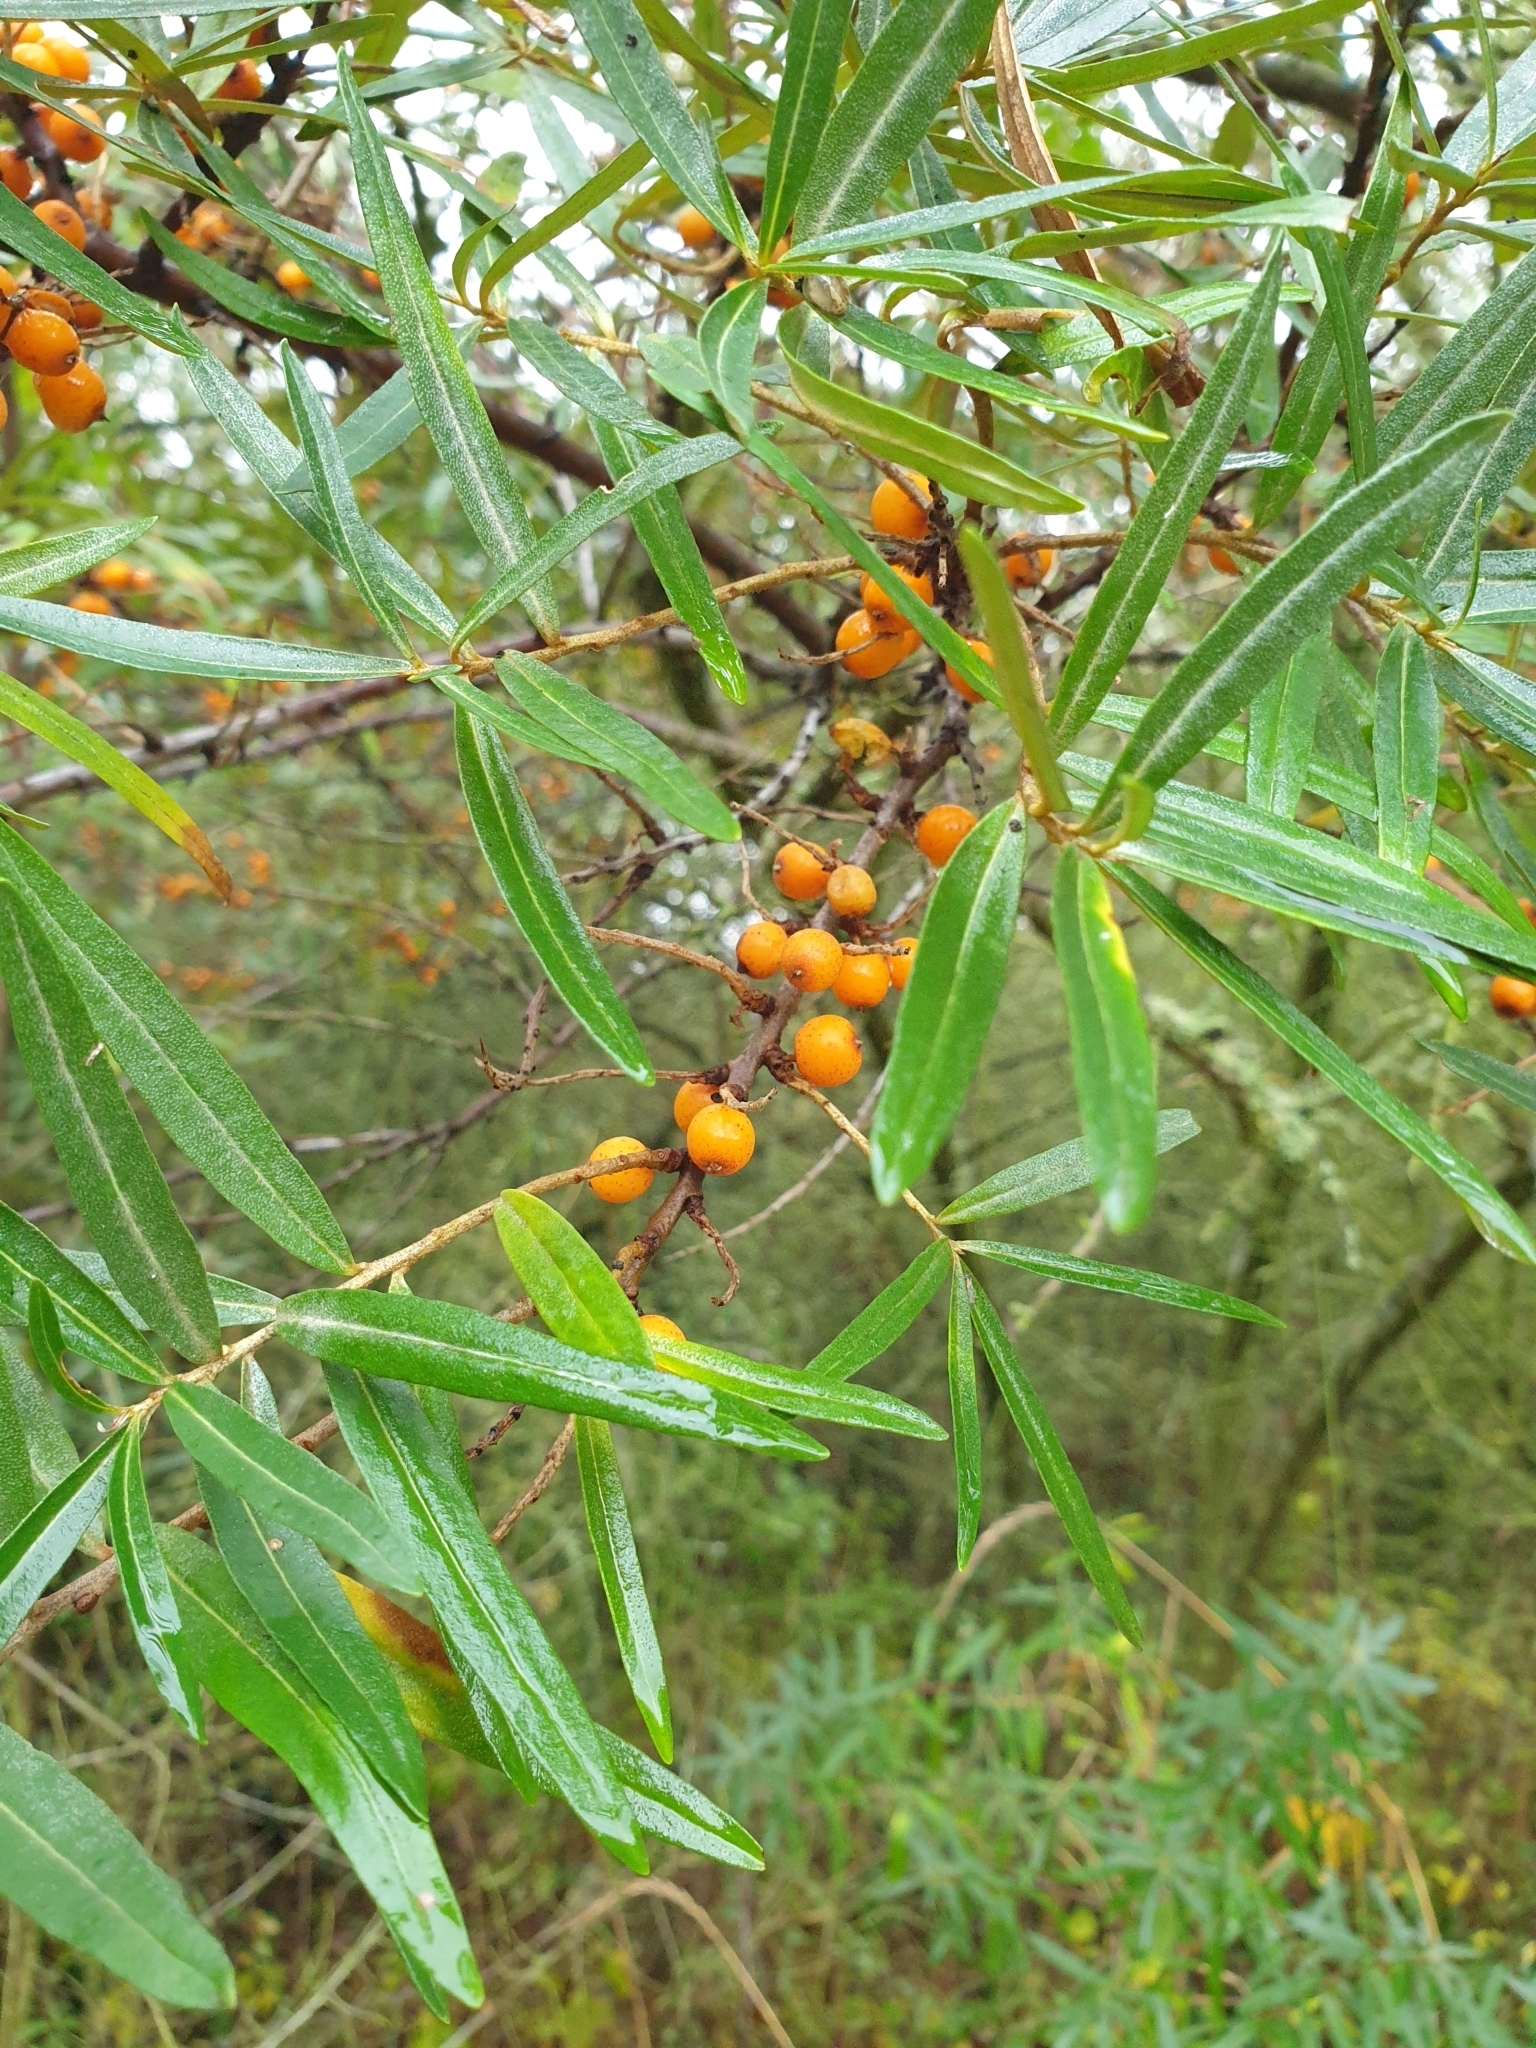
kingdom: Plantae
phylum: Tracheophyta
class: Magnoliopsida
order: Rosales
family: Elaeagnaceae
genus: Hippophae
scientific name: Hippophae rhamnoides
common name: Sea-buckthorn
